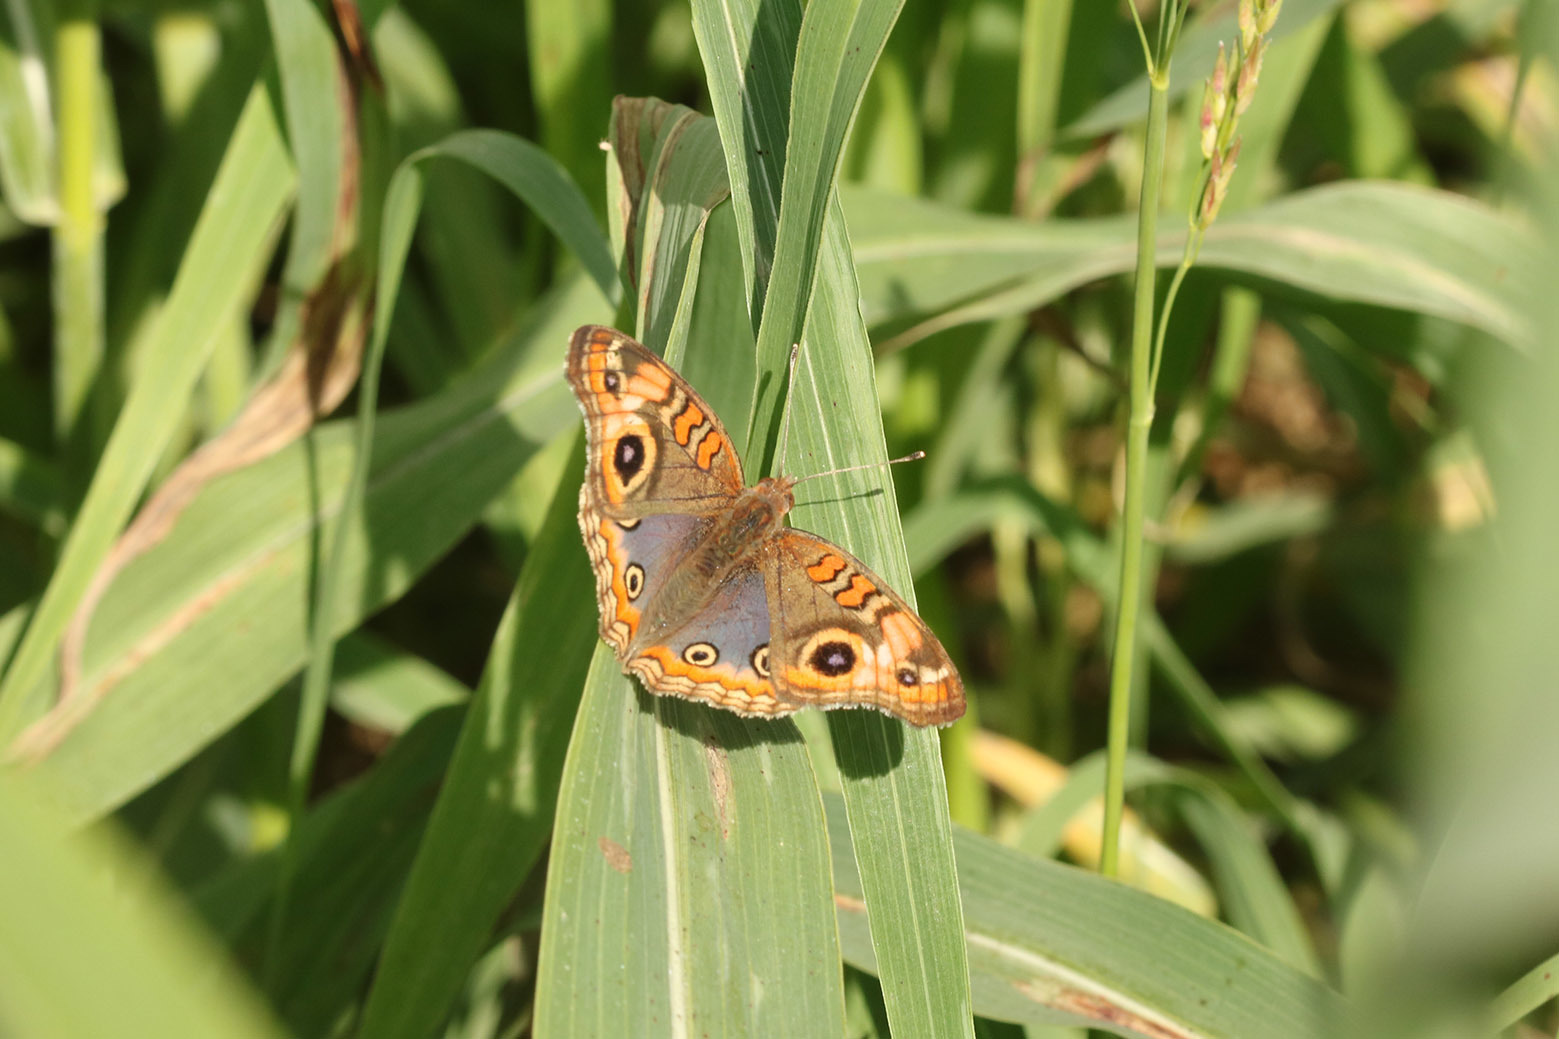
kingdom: Animalia
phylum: Arthropoda
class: Insecta
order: Lepidoptera
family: Nymphalidae
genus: Junonia
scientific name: Junonia lavinia
